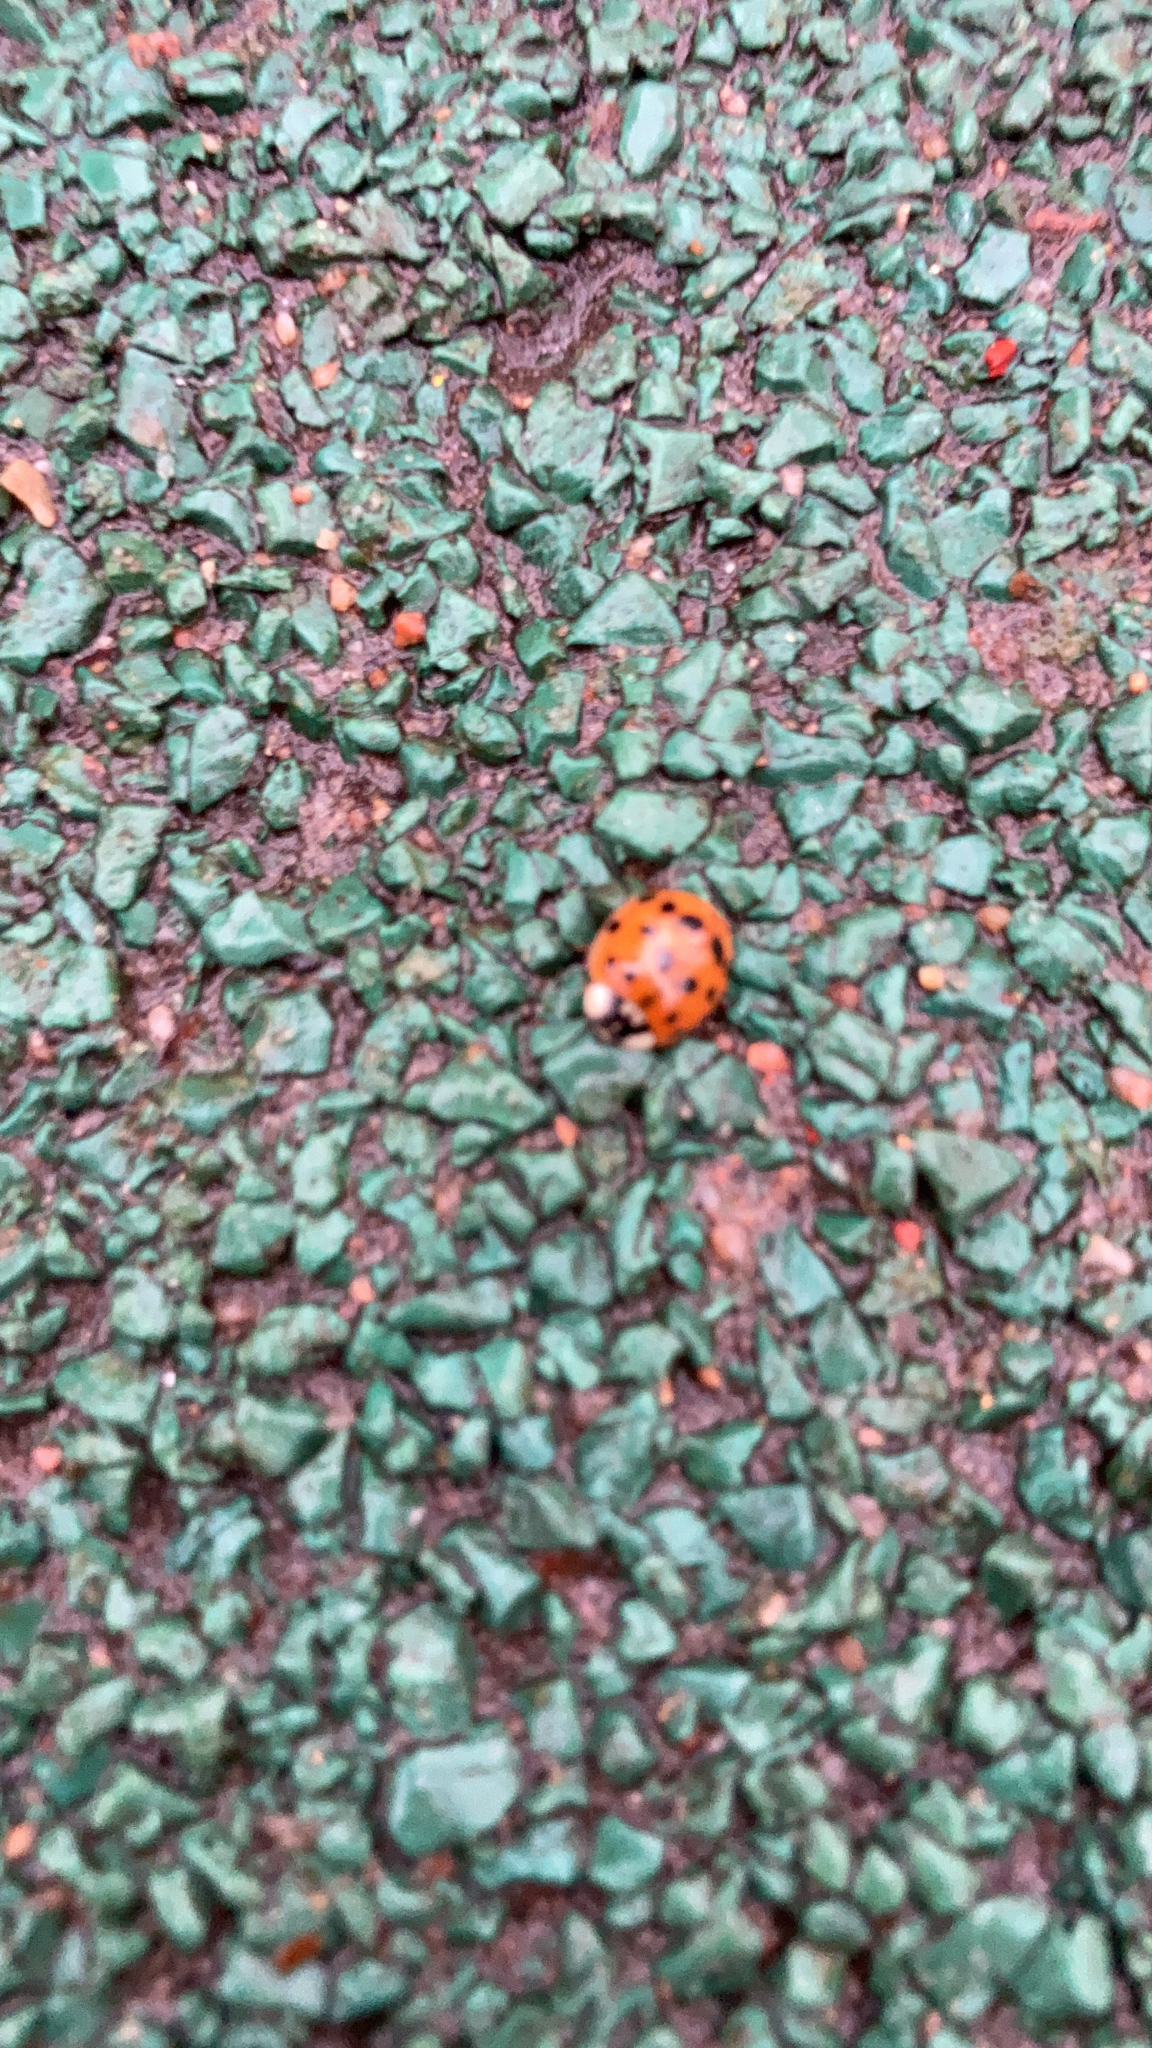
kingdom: Animalia
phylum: Arthropoda
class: Insecta
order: Coleoptera
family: Coccinellidae
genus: Harmonia
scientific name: Harmonia axyridis
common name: Harlequin ladybird
